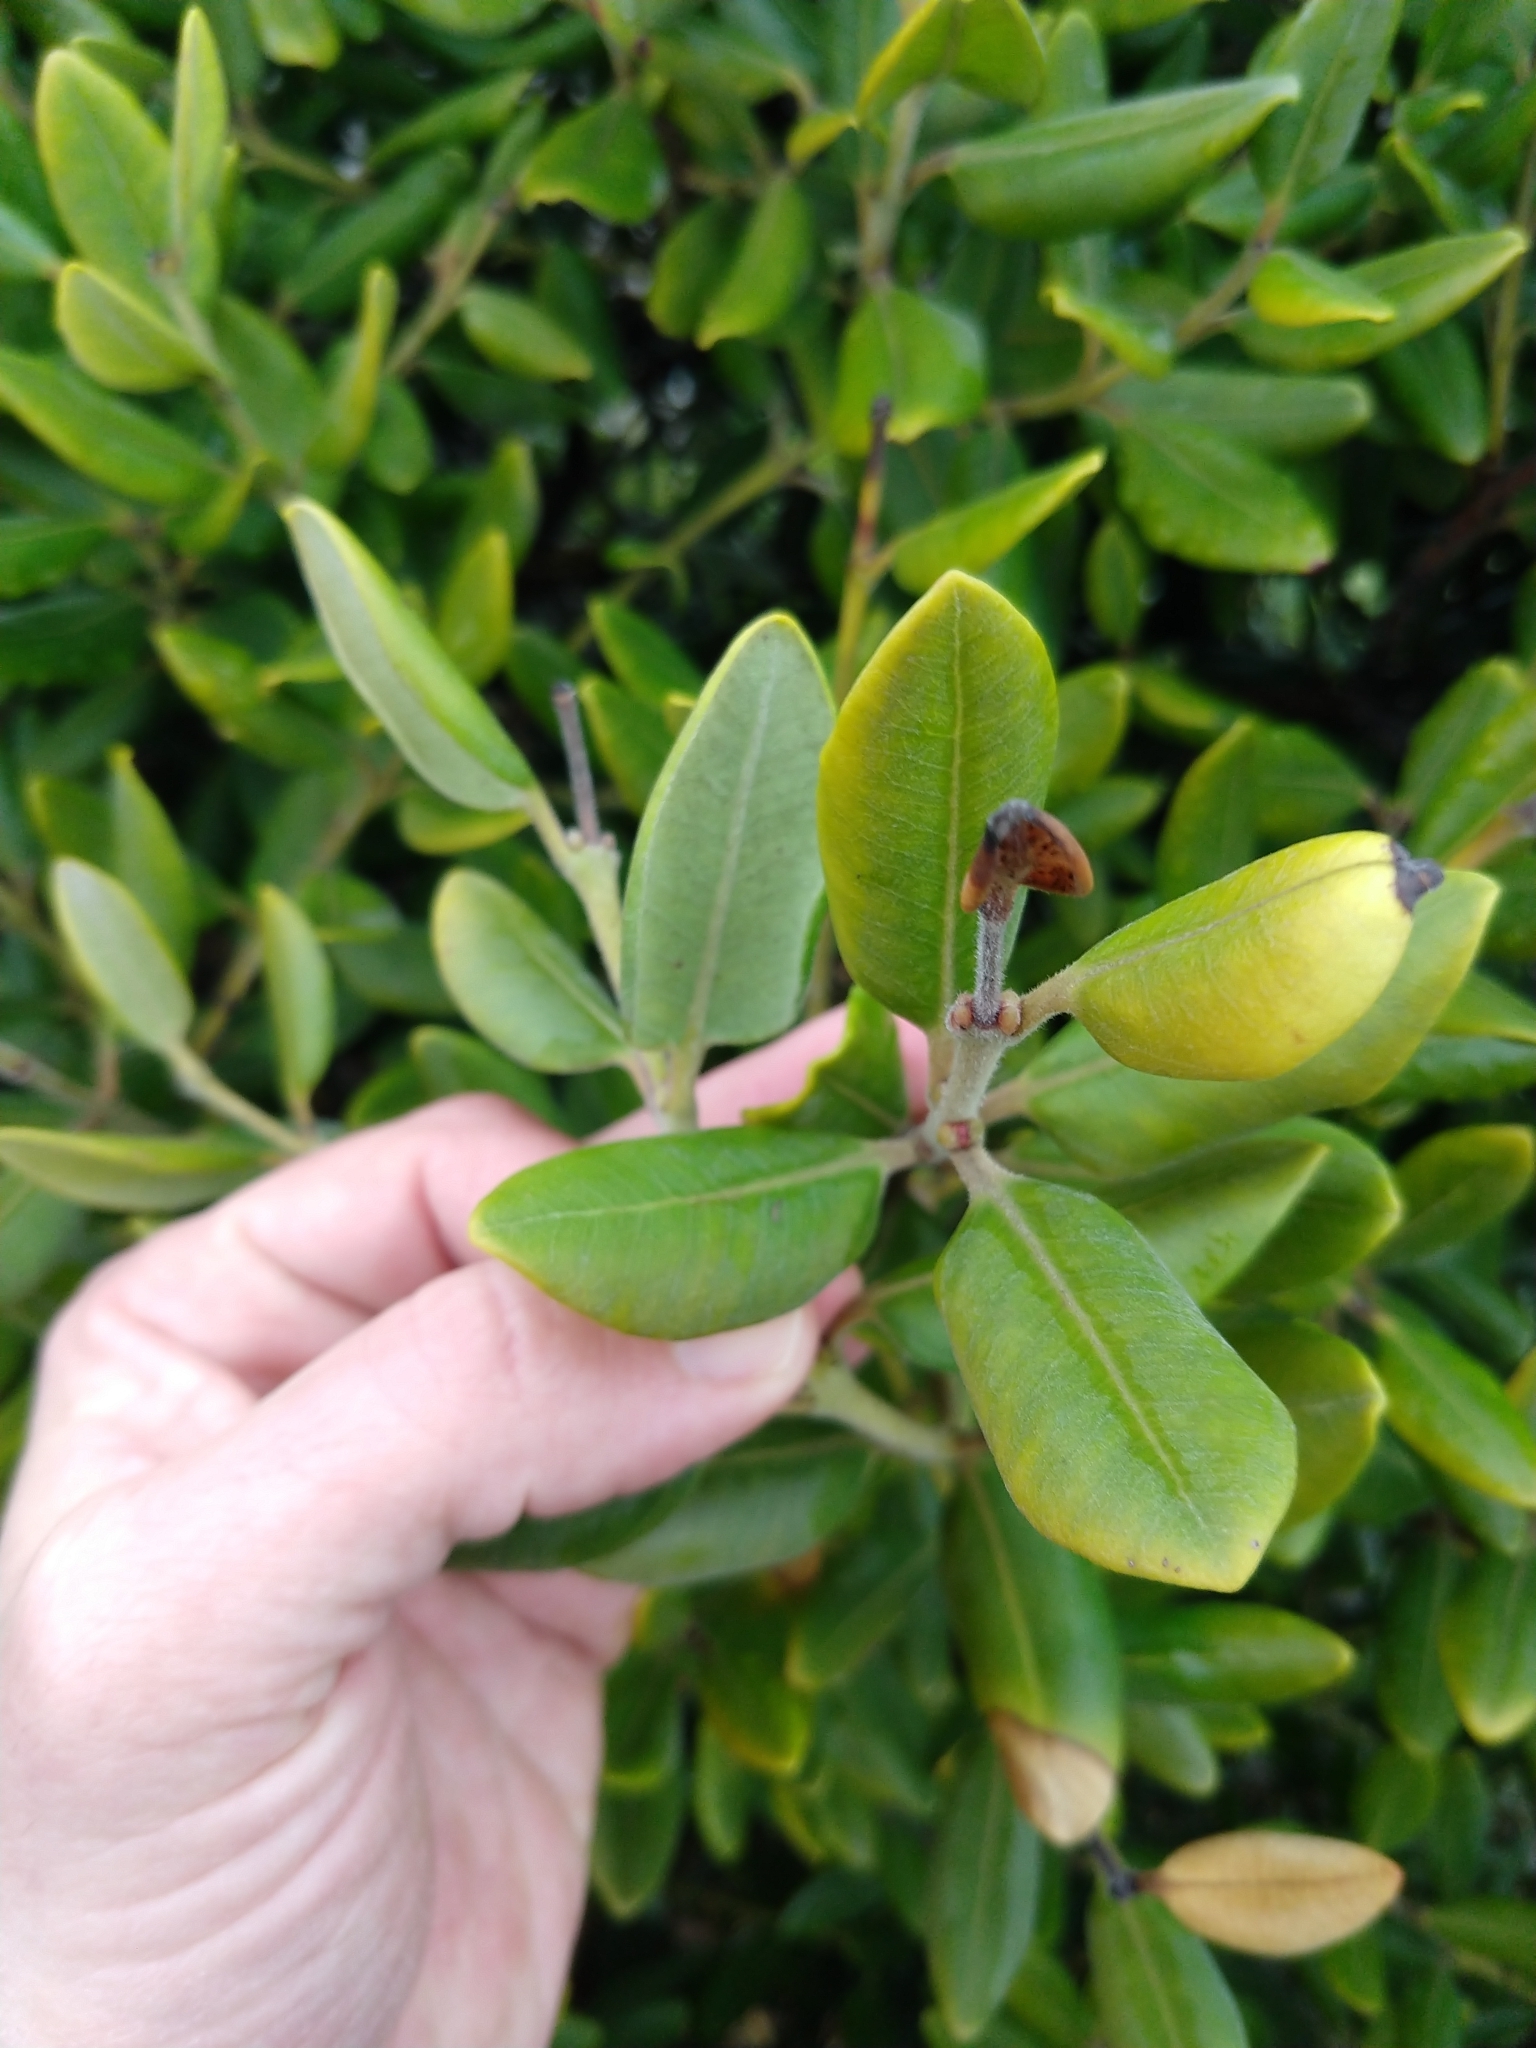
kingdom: Plantae
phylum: Tracheophyta
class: Magnoliopsida
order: Myrtales
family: Myrtaceae
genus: Metrosideros
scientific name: Metrosideros excelsa
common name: New zealand christmastree
